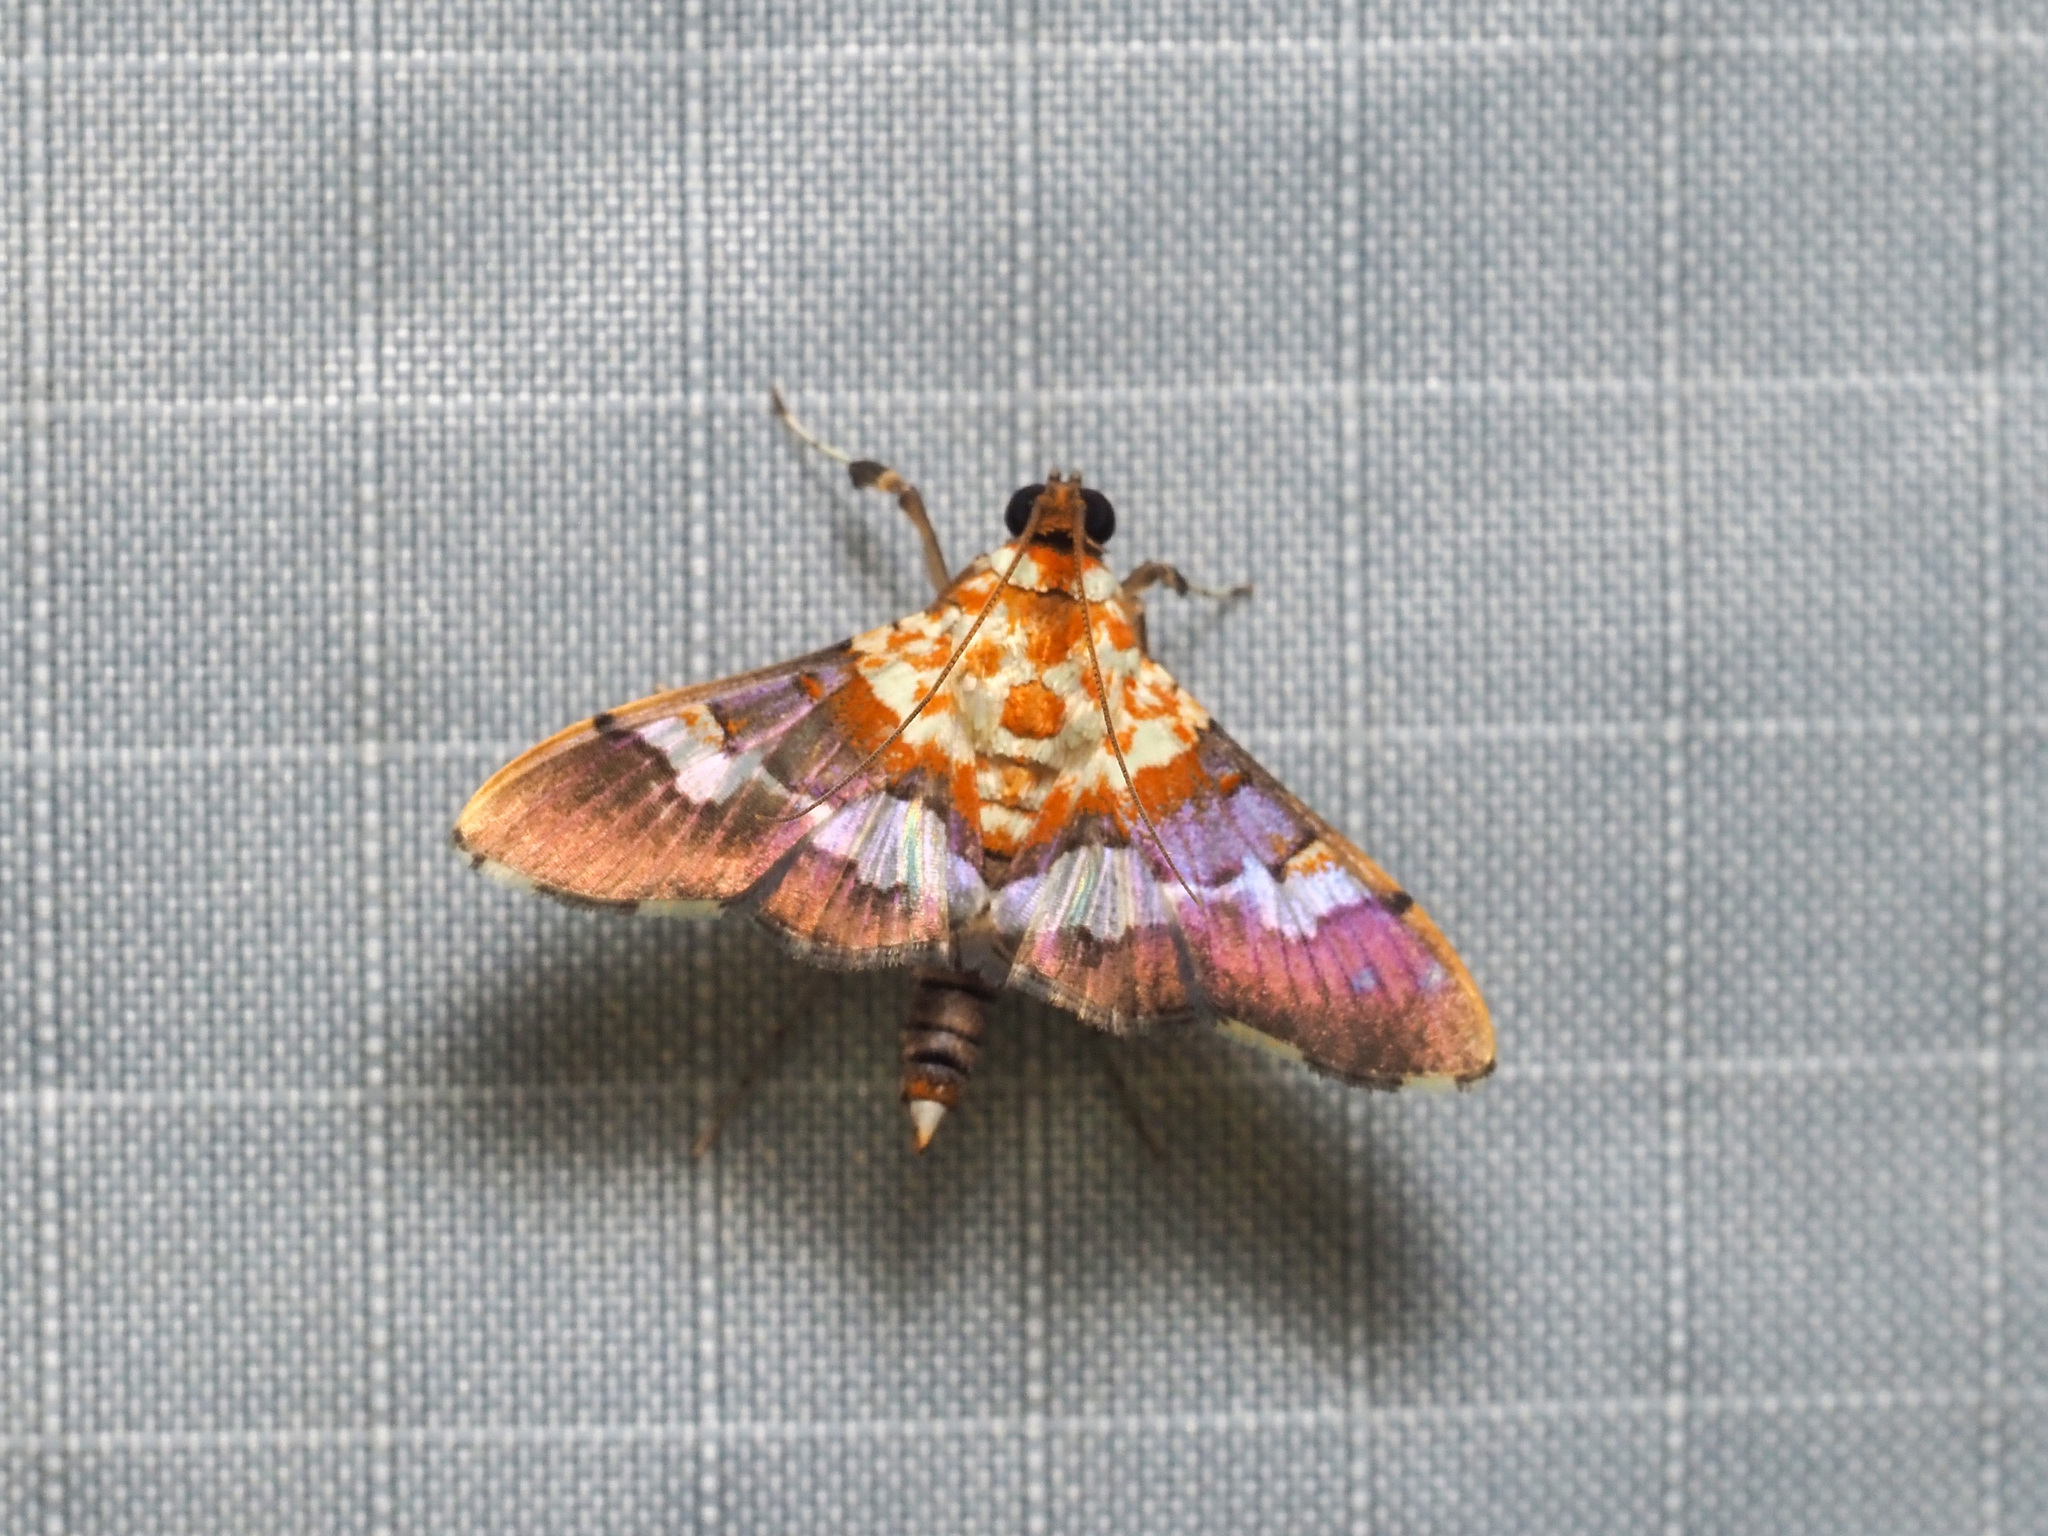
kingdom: Animalia
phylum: Arthropoda
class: Insecta
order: Lepidoptera
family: Crambidae
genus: Aetholix
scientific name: Aetholix flavibasalis
